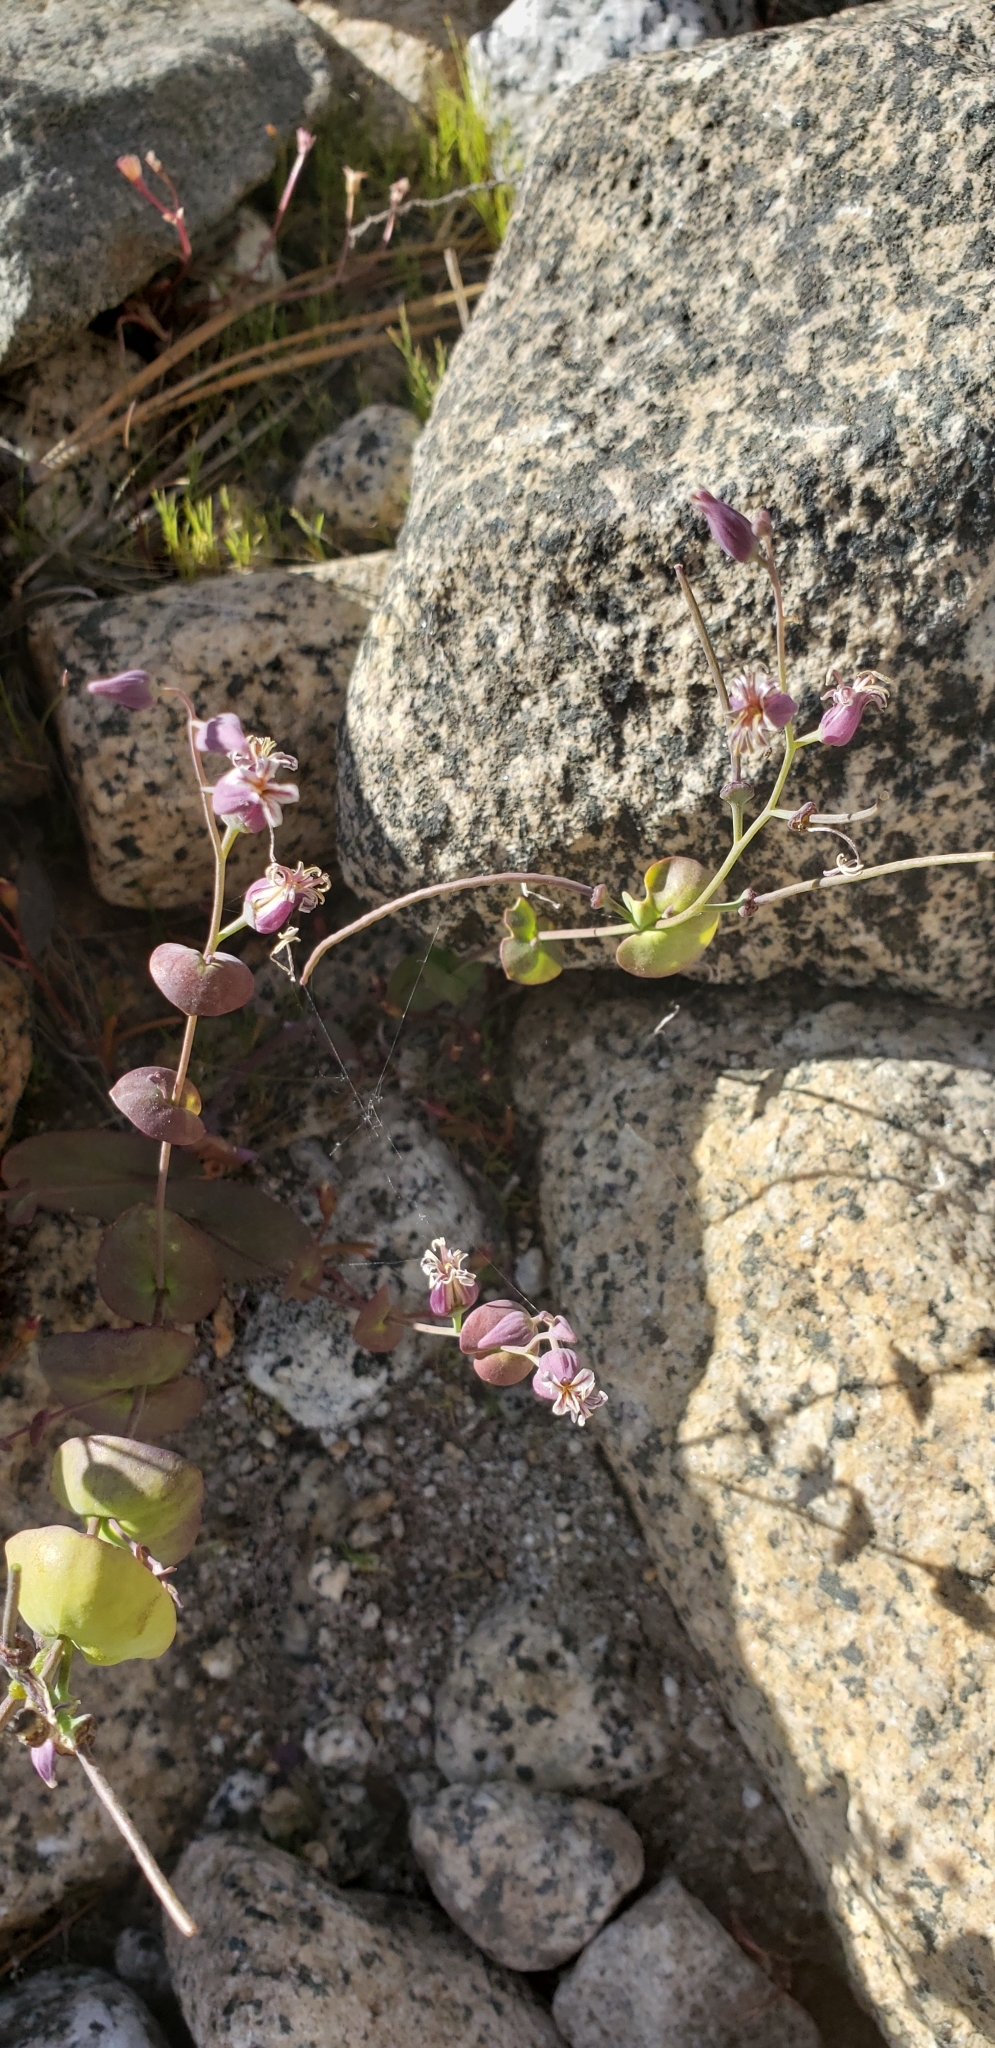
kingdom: Plantae
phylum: Tracheophyta
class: Magnoliopsida
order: Brassicales
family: Brassicaceae
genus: Streptanthus
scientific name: Streptanthus tortuosus
